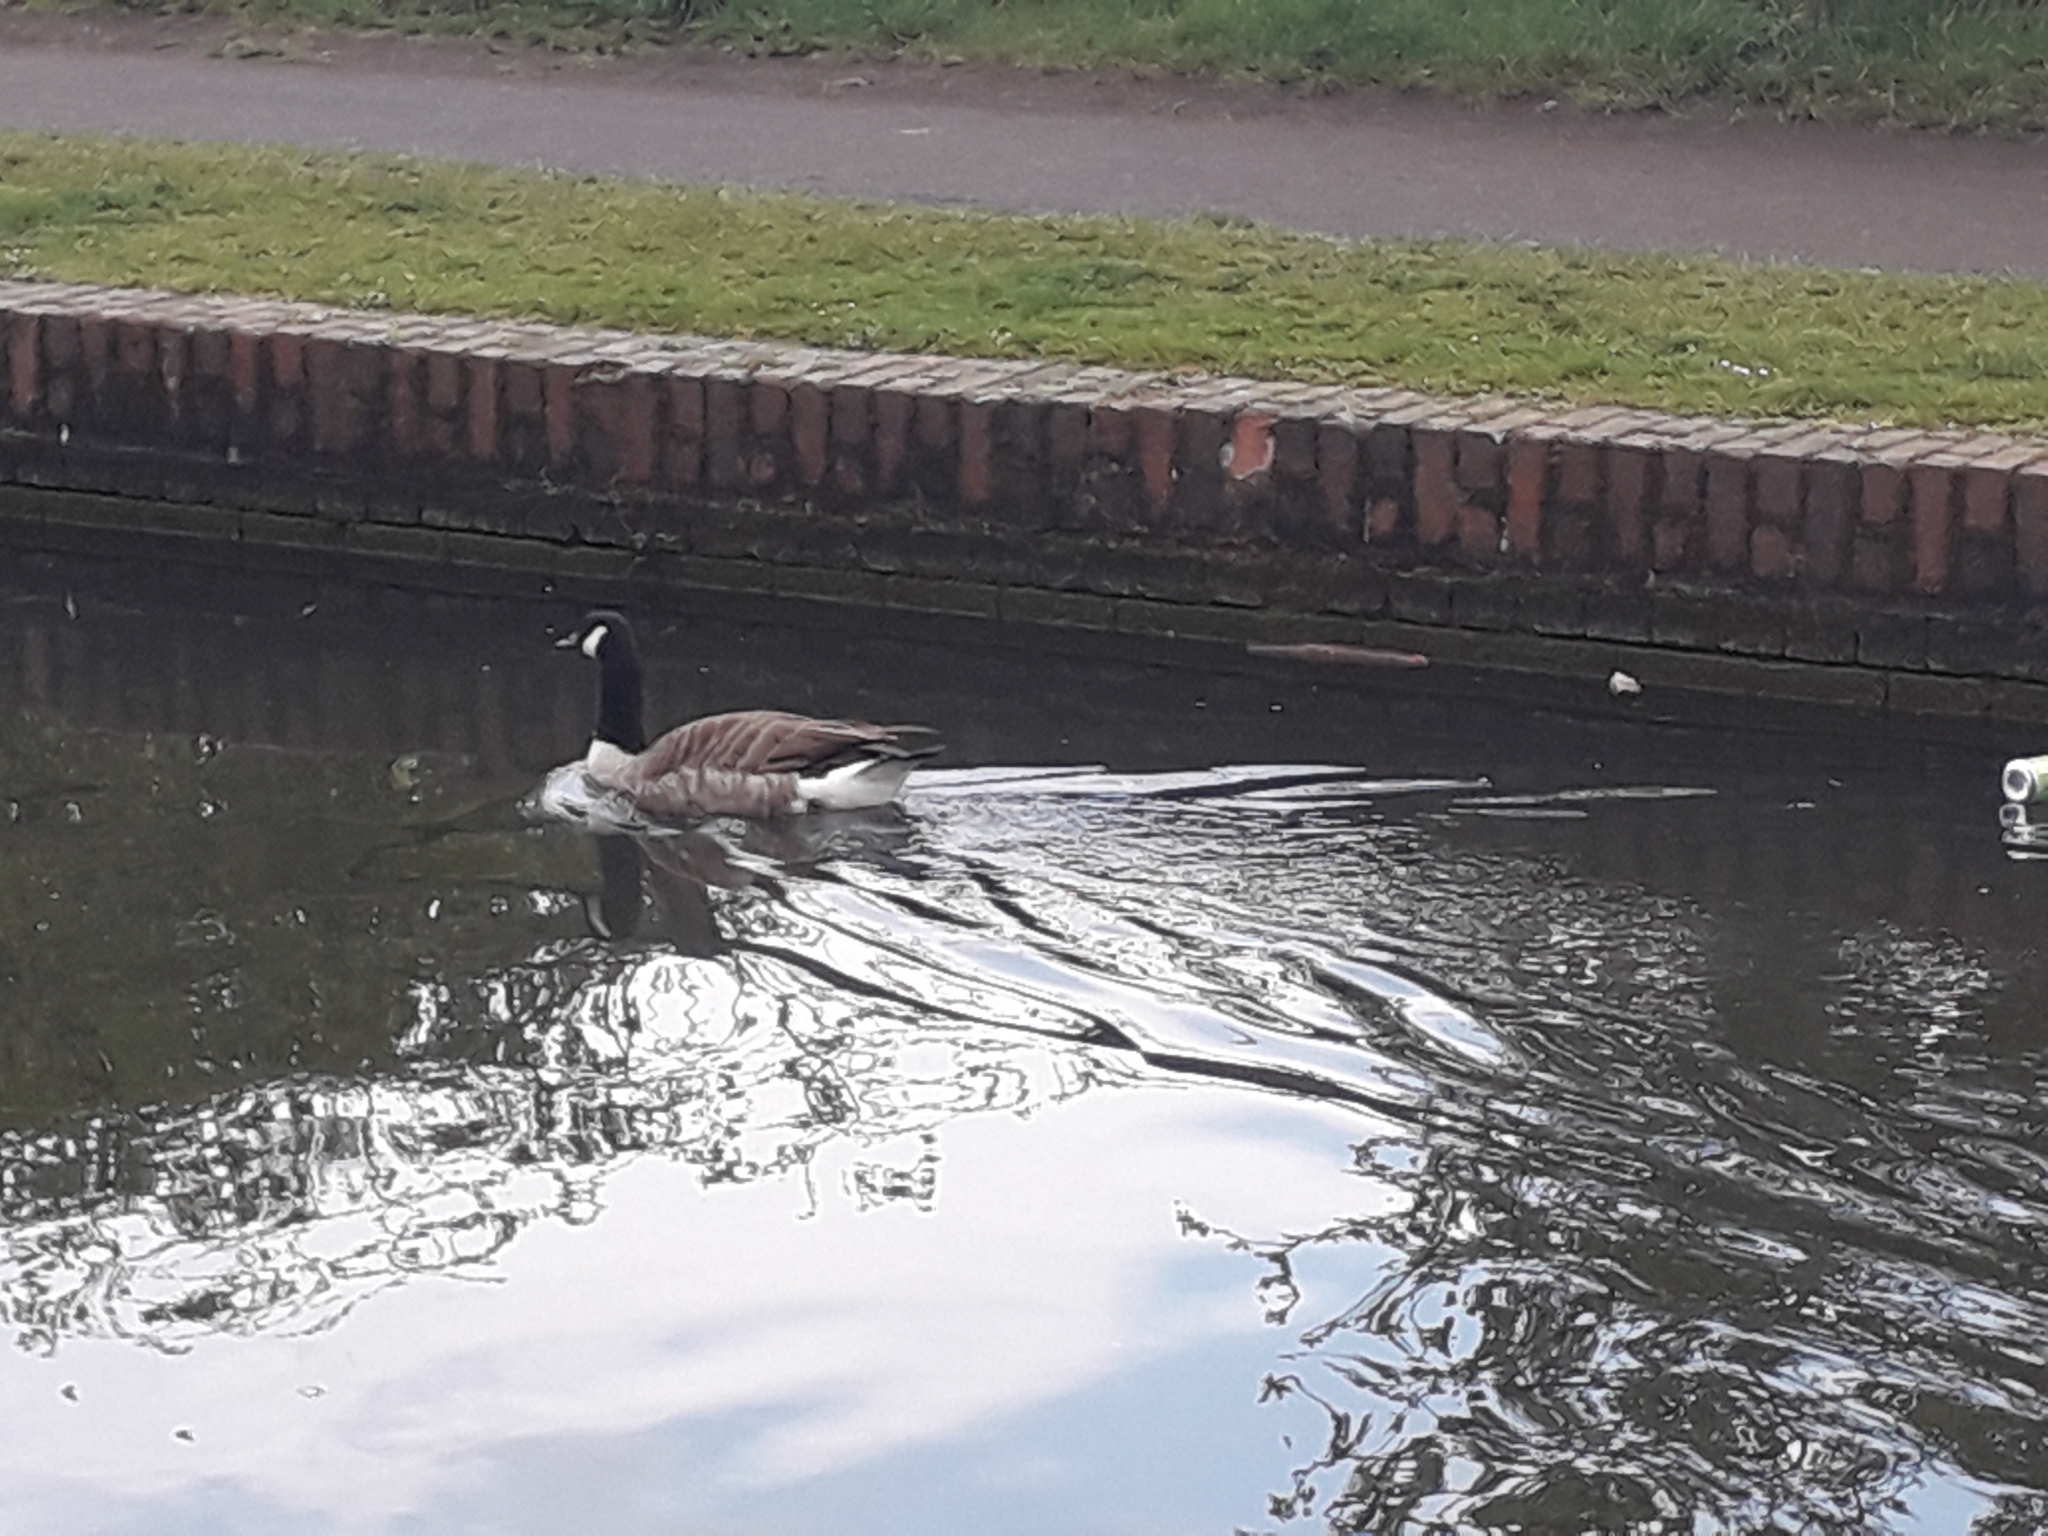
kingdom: Animalia
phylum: Chordata
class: Aves
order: Anseriformes
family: Anatidae
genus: Branta
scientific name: Branta canadensis
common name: Canada goose
